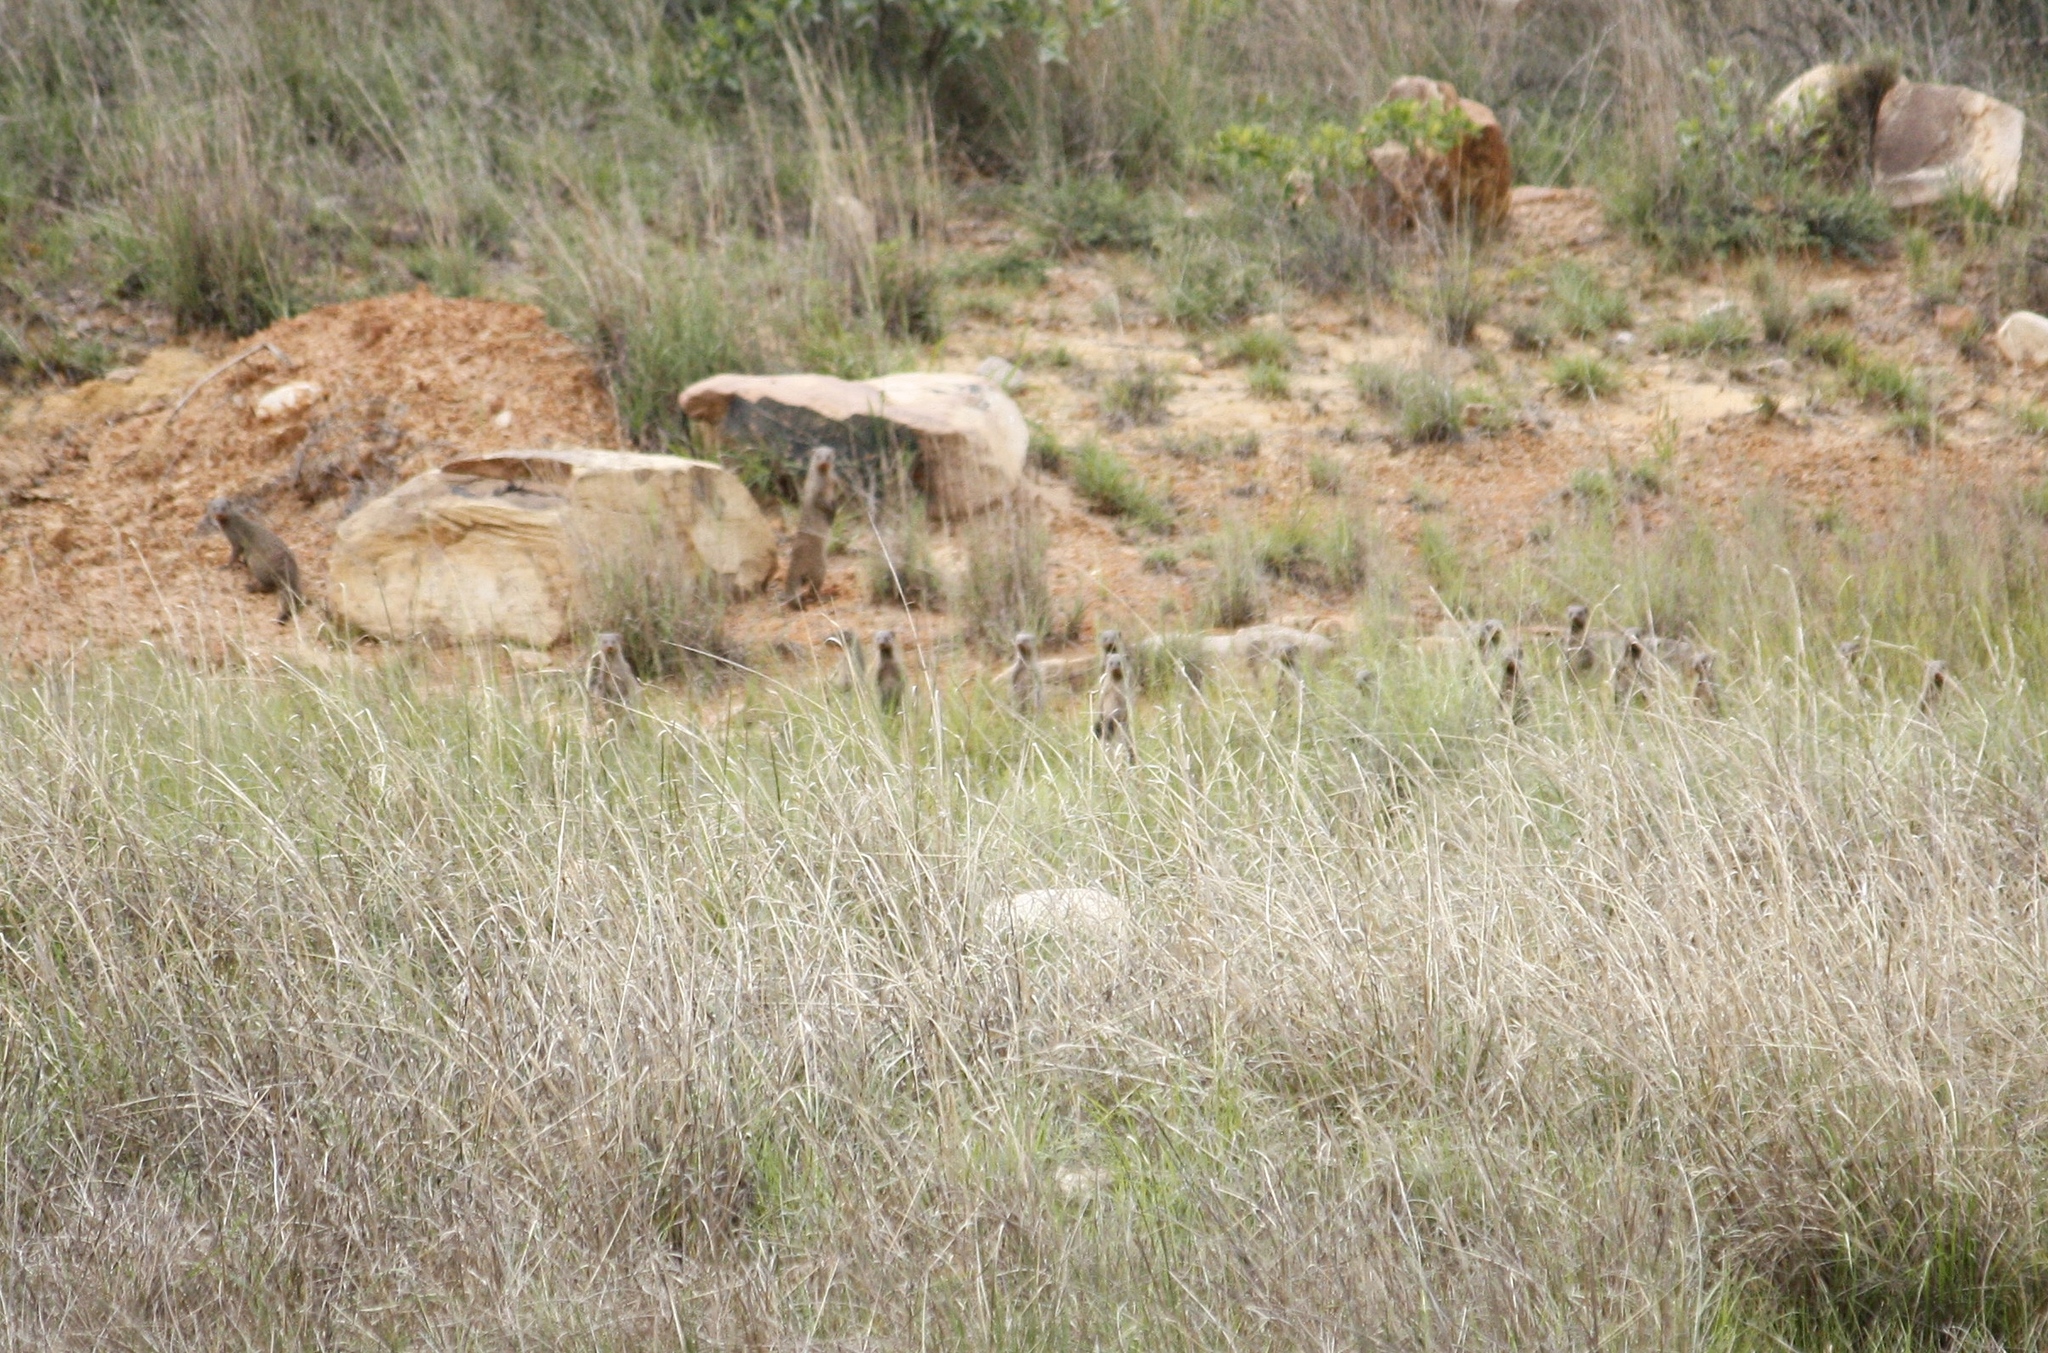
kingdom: Animalia
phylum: Chordata
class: Mammalia
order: Carnivora
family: Herpestidae
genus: Mungos
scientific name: Mungos mungo
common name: Banded mongoose
